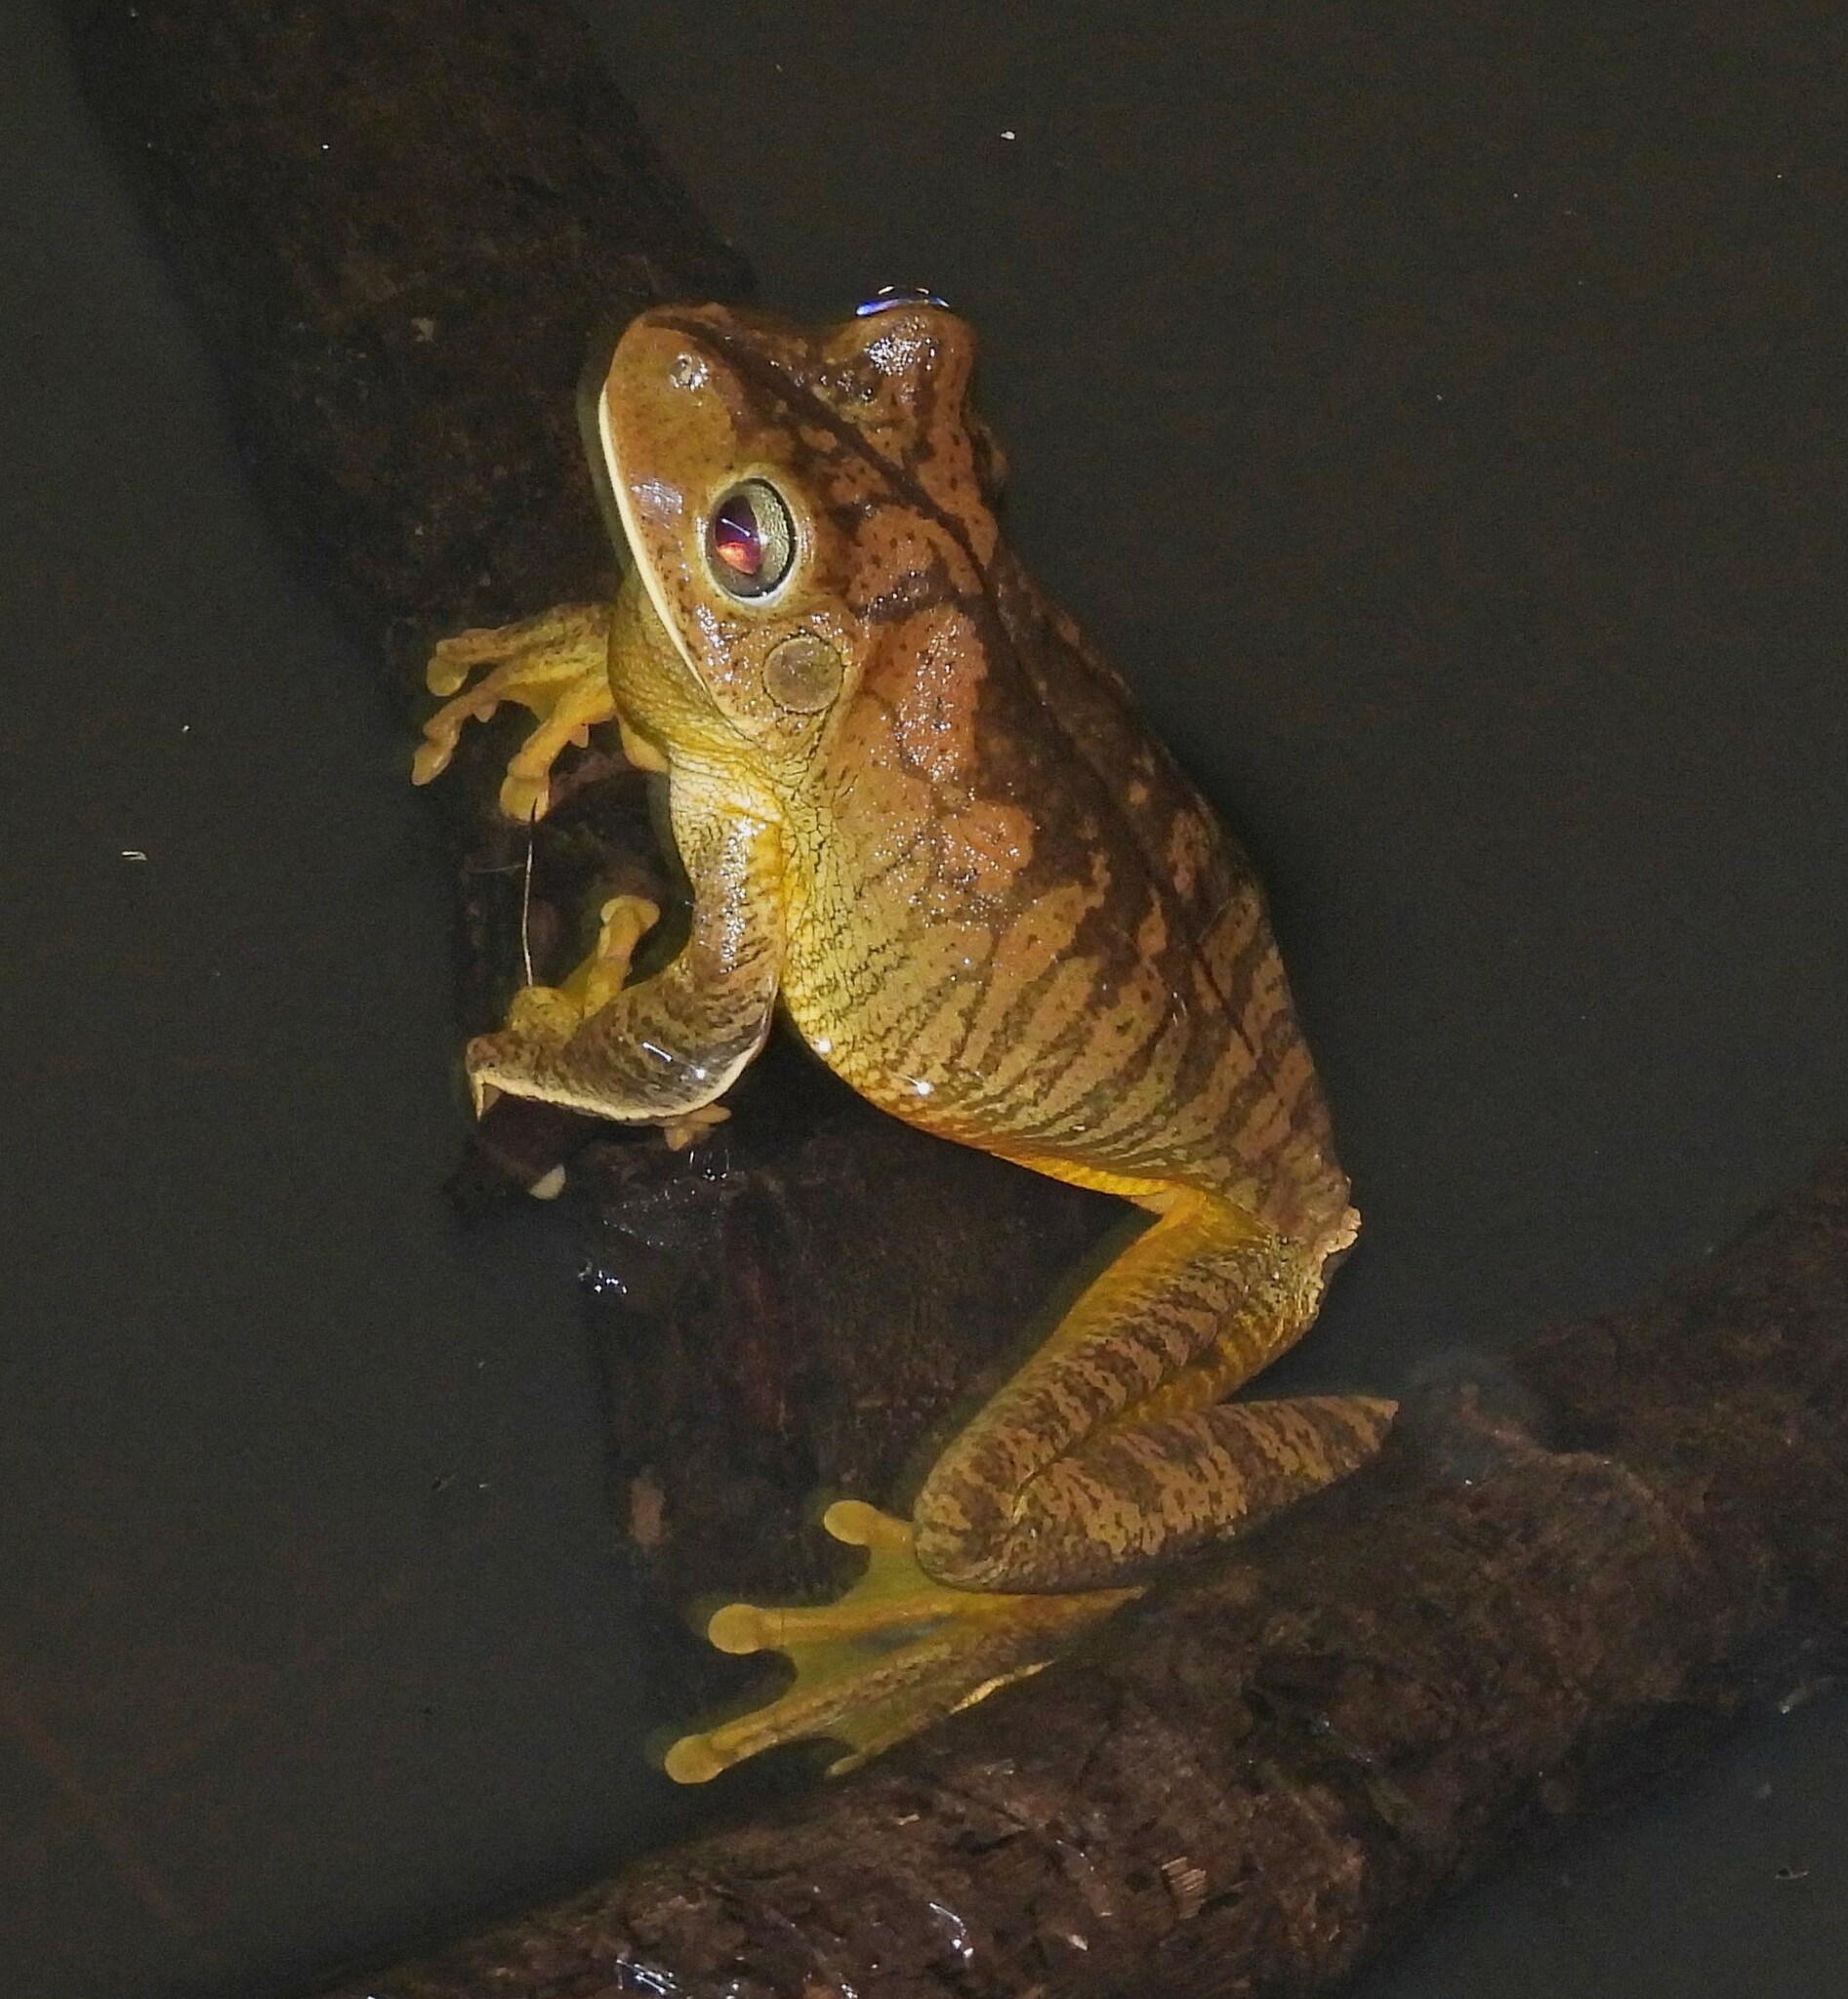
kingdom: Animalia
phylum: Chordata
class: Amphibia
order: Anura
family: Hylidae
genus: Boana
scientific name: Boana faber
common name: Blacksmith tree frog
